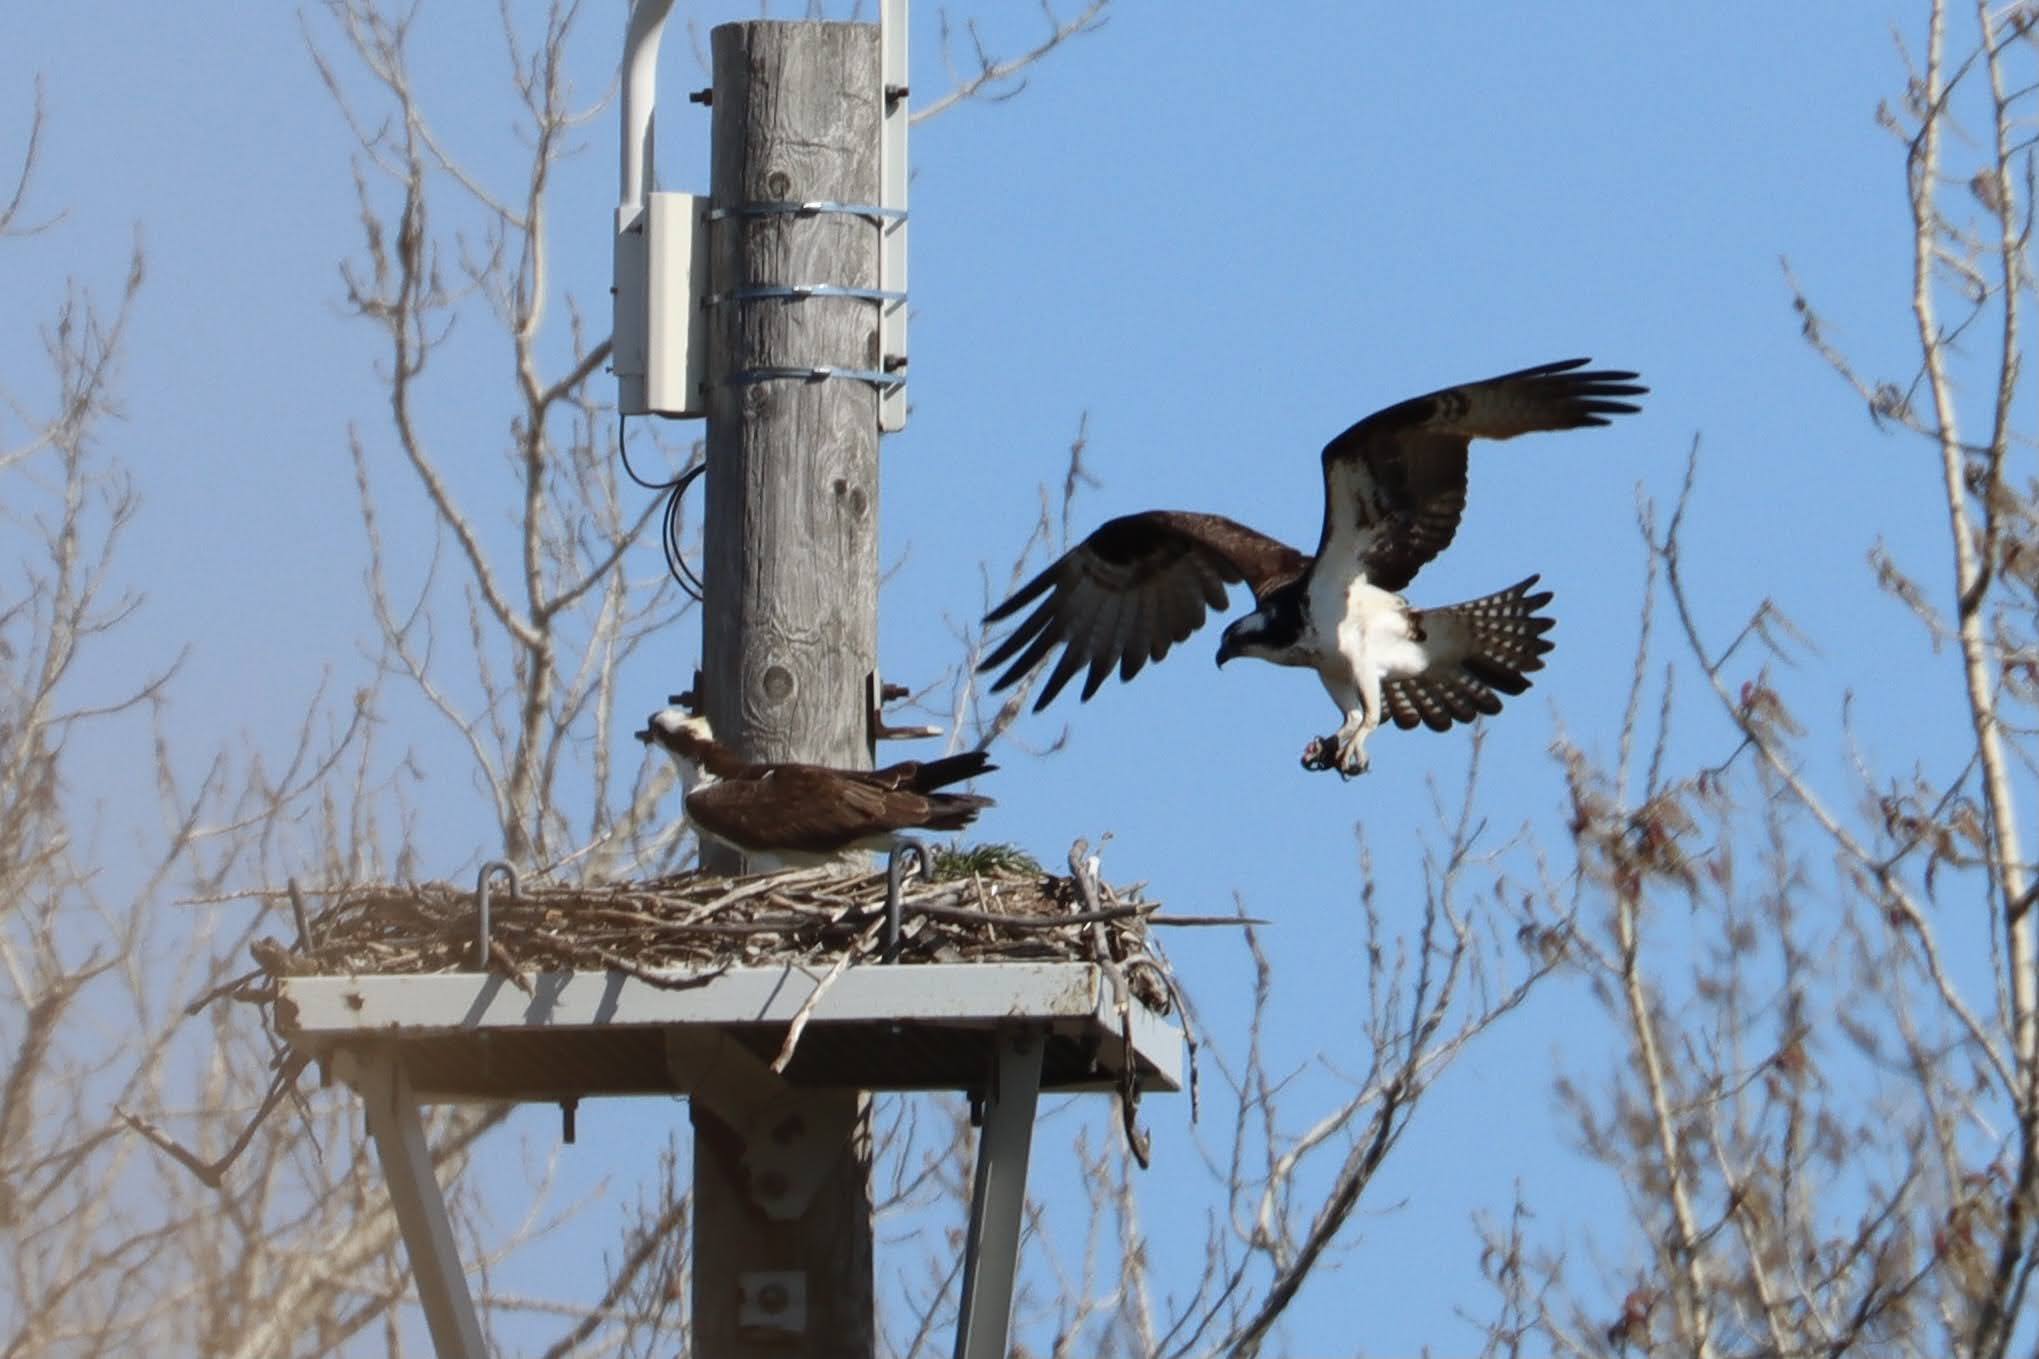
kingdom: Animalia
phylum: Chordata
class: Aves
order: Accipitriformes
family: Pandionidae
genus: Pandion
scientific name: Pandion haliaetus
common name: Osprey
